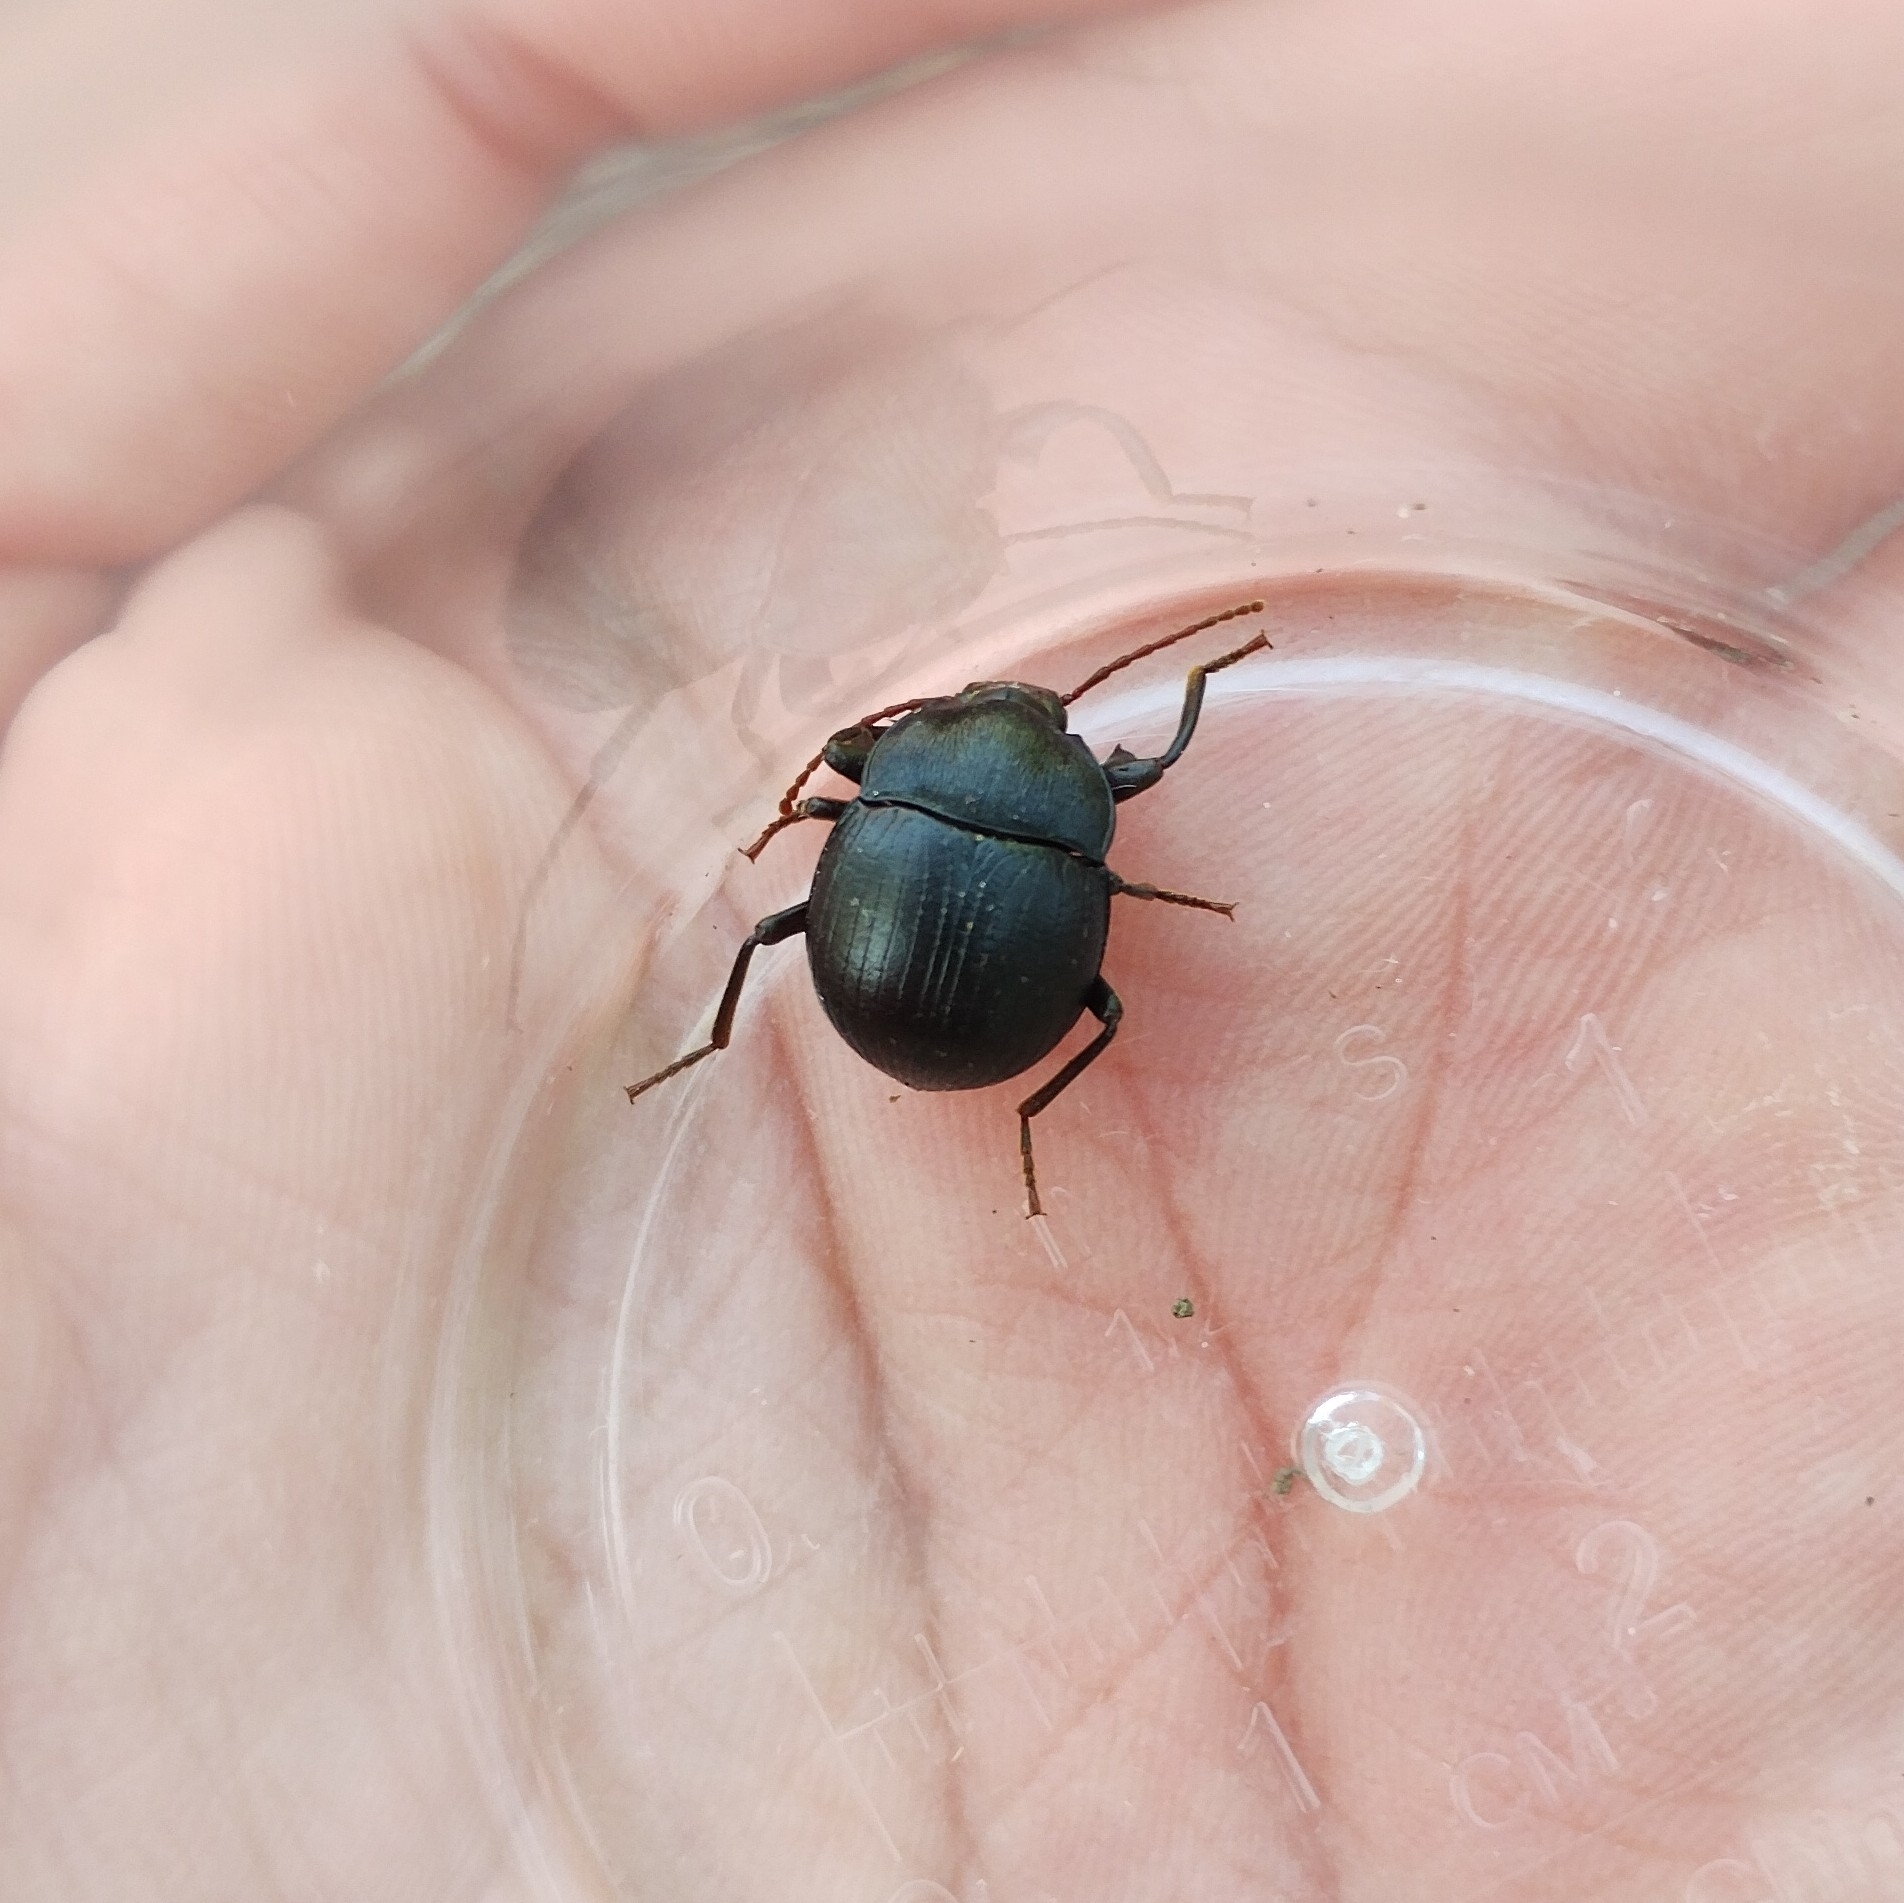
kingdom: Animalia
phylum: Arthropoda
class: Insecta
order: Coleoptera
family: Tenebrionidae
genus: Accanthopus
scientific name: Accanthopus velikensis
